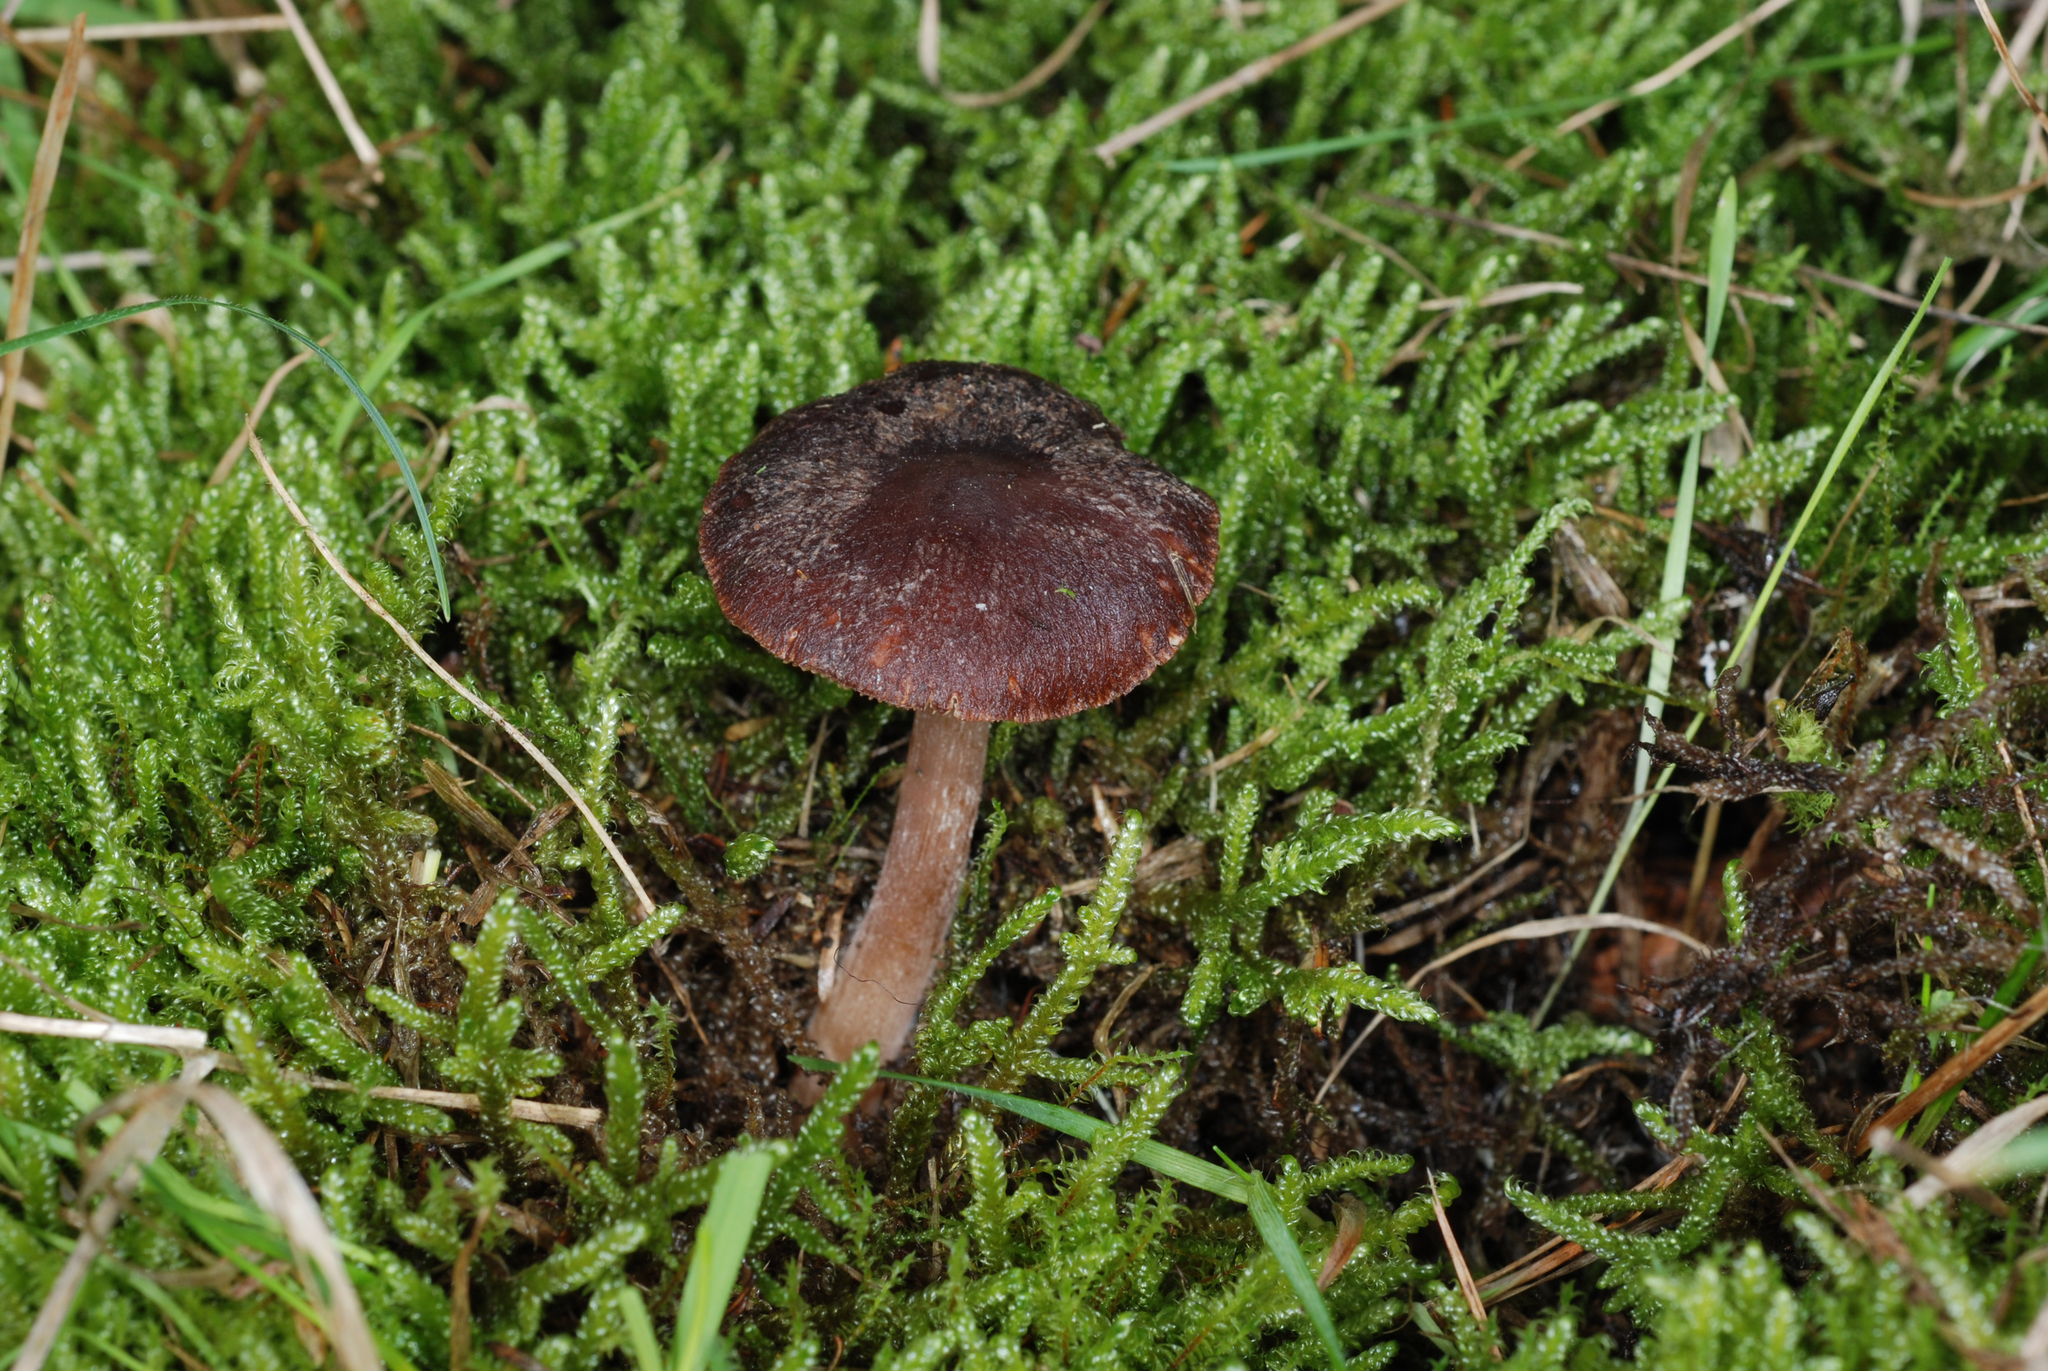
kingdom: Fungi
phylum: Basidiomycota
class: Agaricomycetes
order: Agaricales
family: Omphalotaceae
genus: Rhodocollybia
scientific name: Rhodocollybia purpurata
